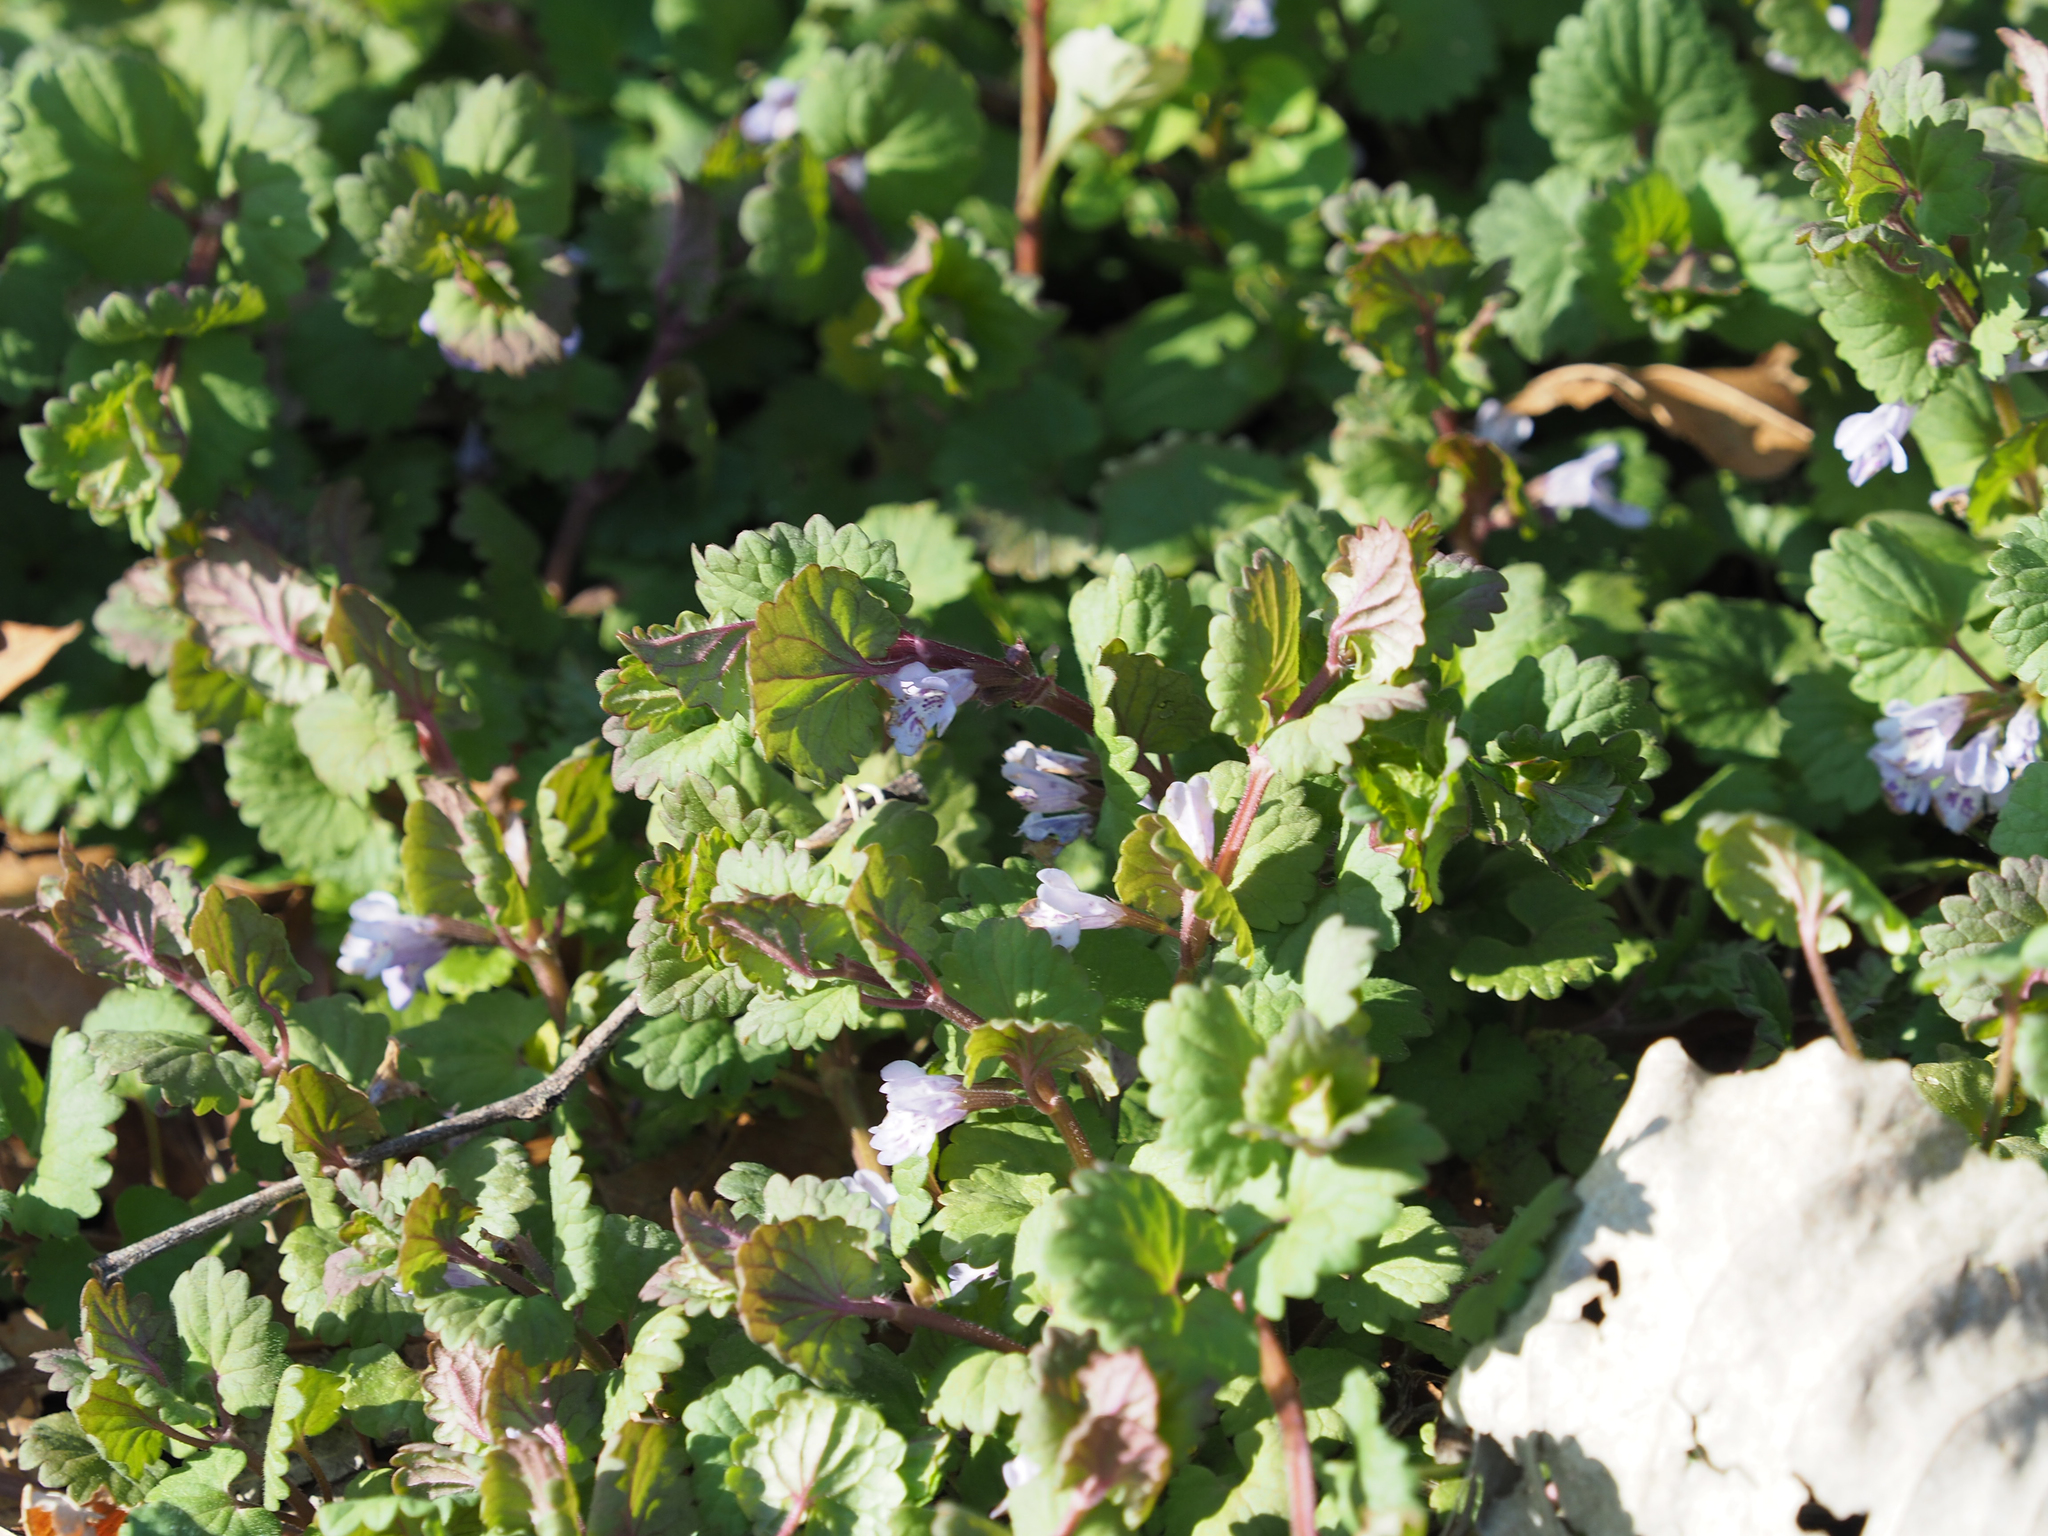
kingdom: Plantae
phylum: Tracheophyta
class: Magnoliopsida
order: Lamiales
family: Lamiaceae
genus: Glechoma
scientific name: Glechoma hederacea
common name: Ground ivy
